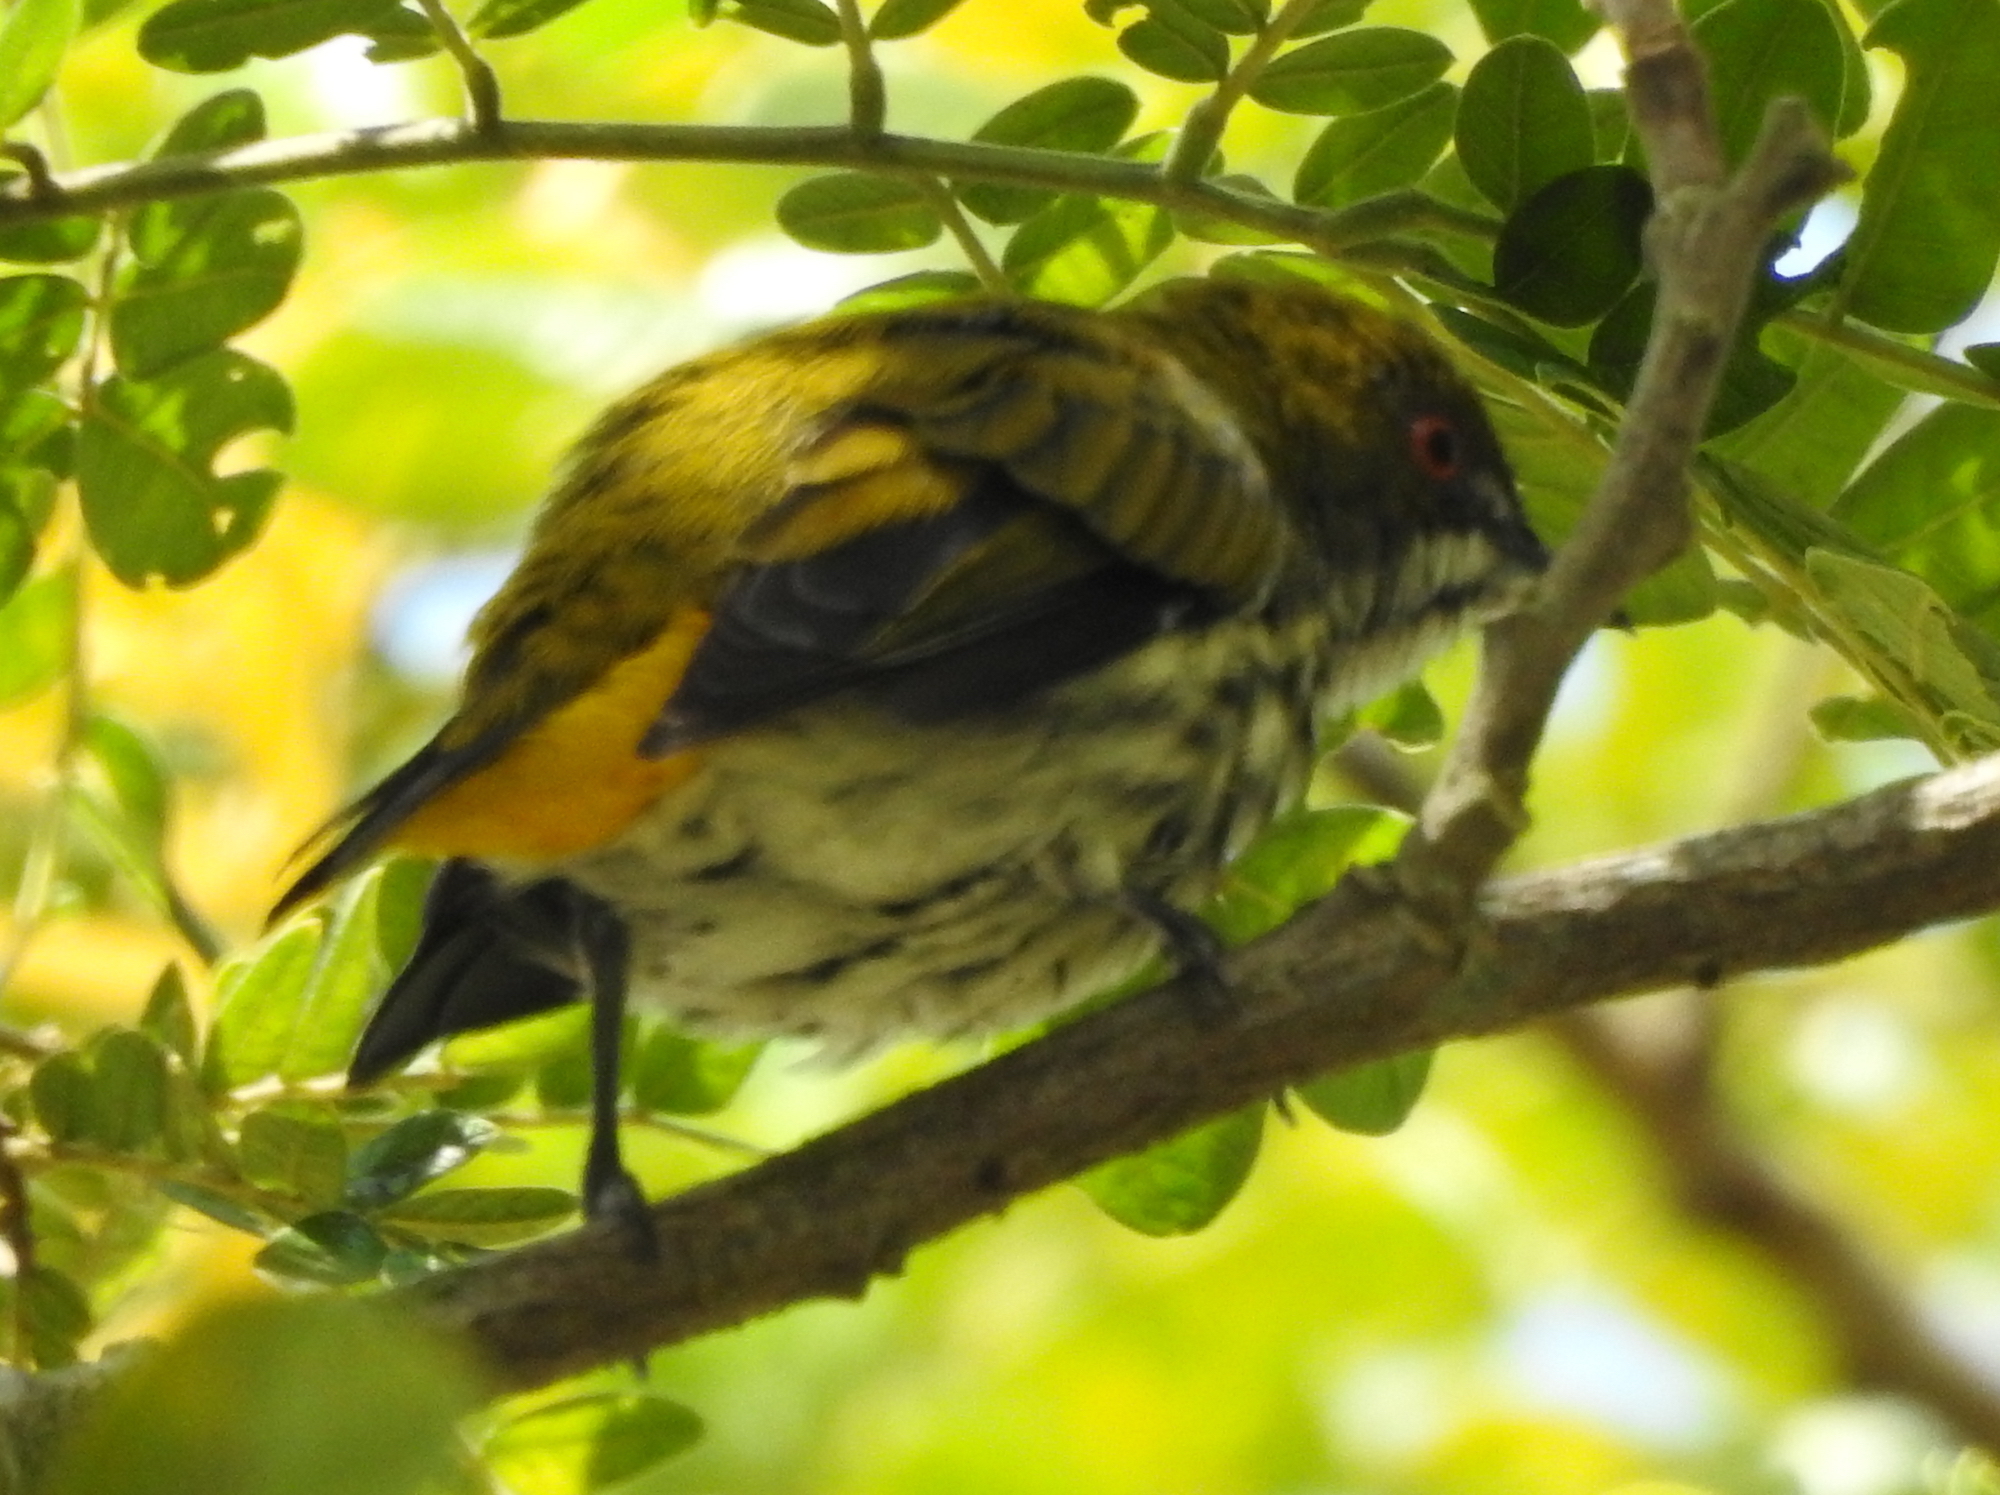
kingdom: Animalia
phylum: Chordata
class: Aves
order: Passeriformes
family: Dicaeidae
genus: Dicaeum
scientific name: Dicaeum chrysorrheum
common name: Yellow-vented flowerpecker
